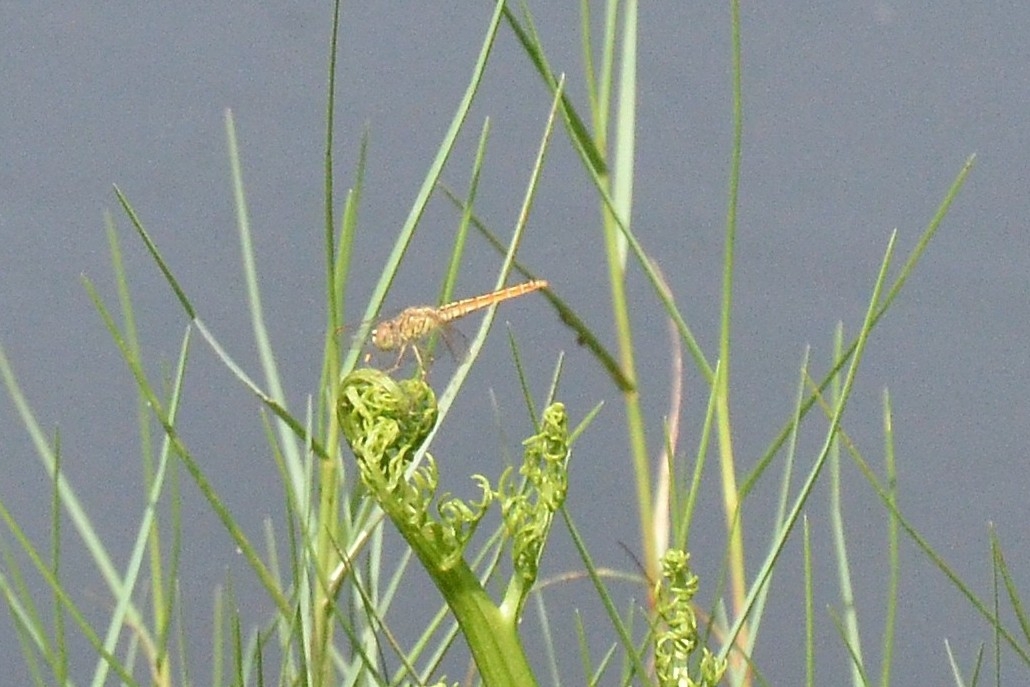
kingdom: Animalia
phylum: Arthropoda
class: Insecta
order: Odonata
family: Libellulidae
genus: Brachythemis
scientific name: Brachythemis contaminata
